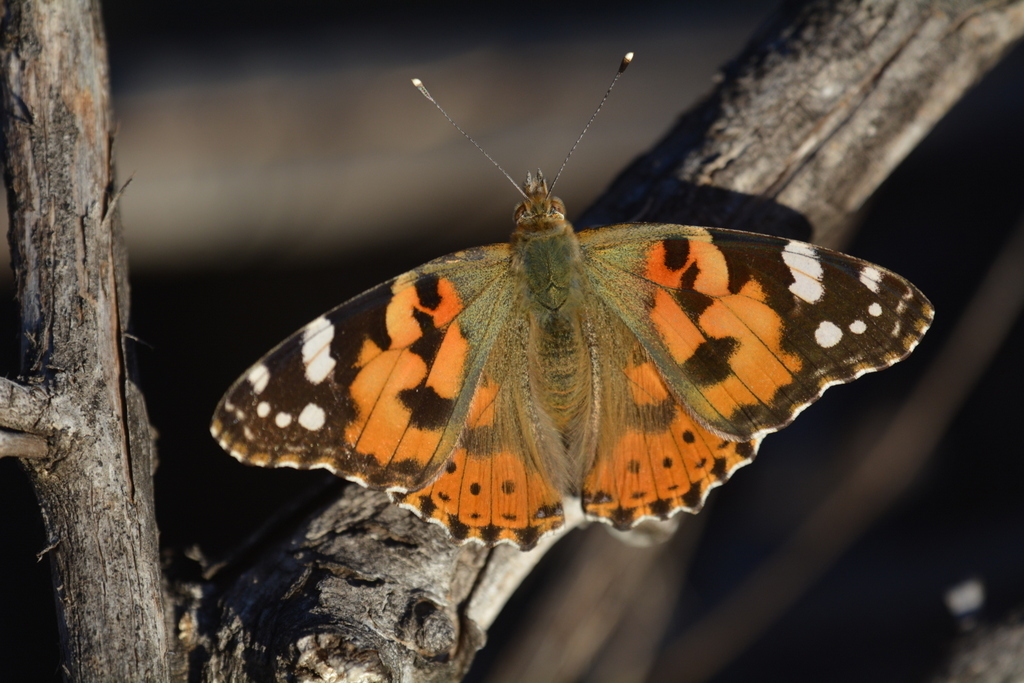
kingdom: Animalia
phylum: Arthropoda
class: Insecta
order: Lepidoptera
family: Nymphalidae
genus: Vanessa
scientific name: Vanessa cardui
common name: Painted lady
